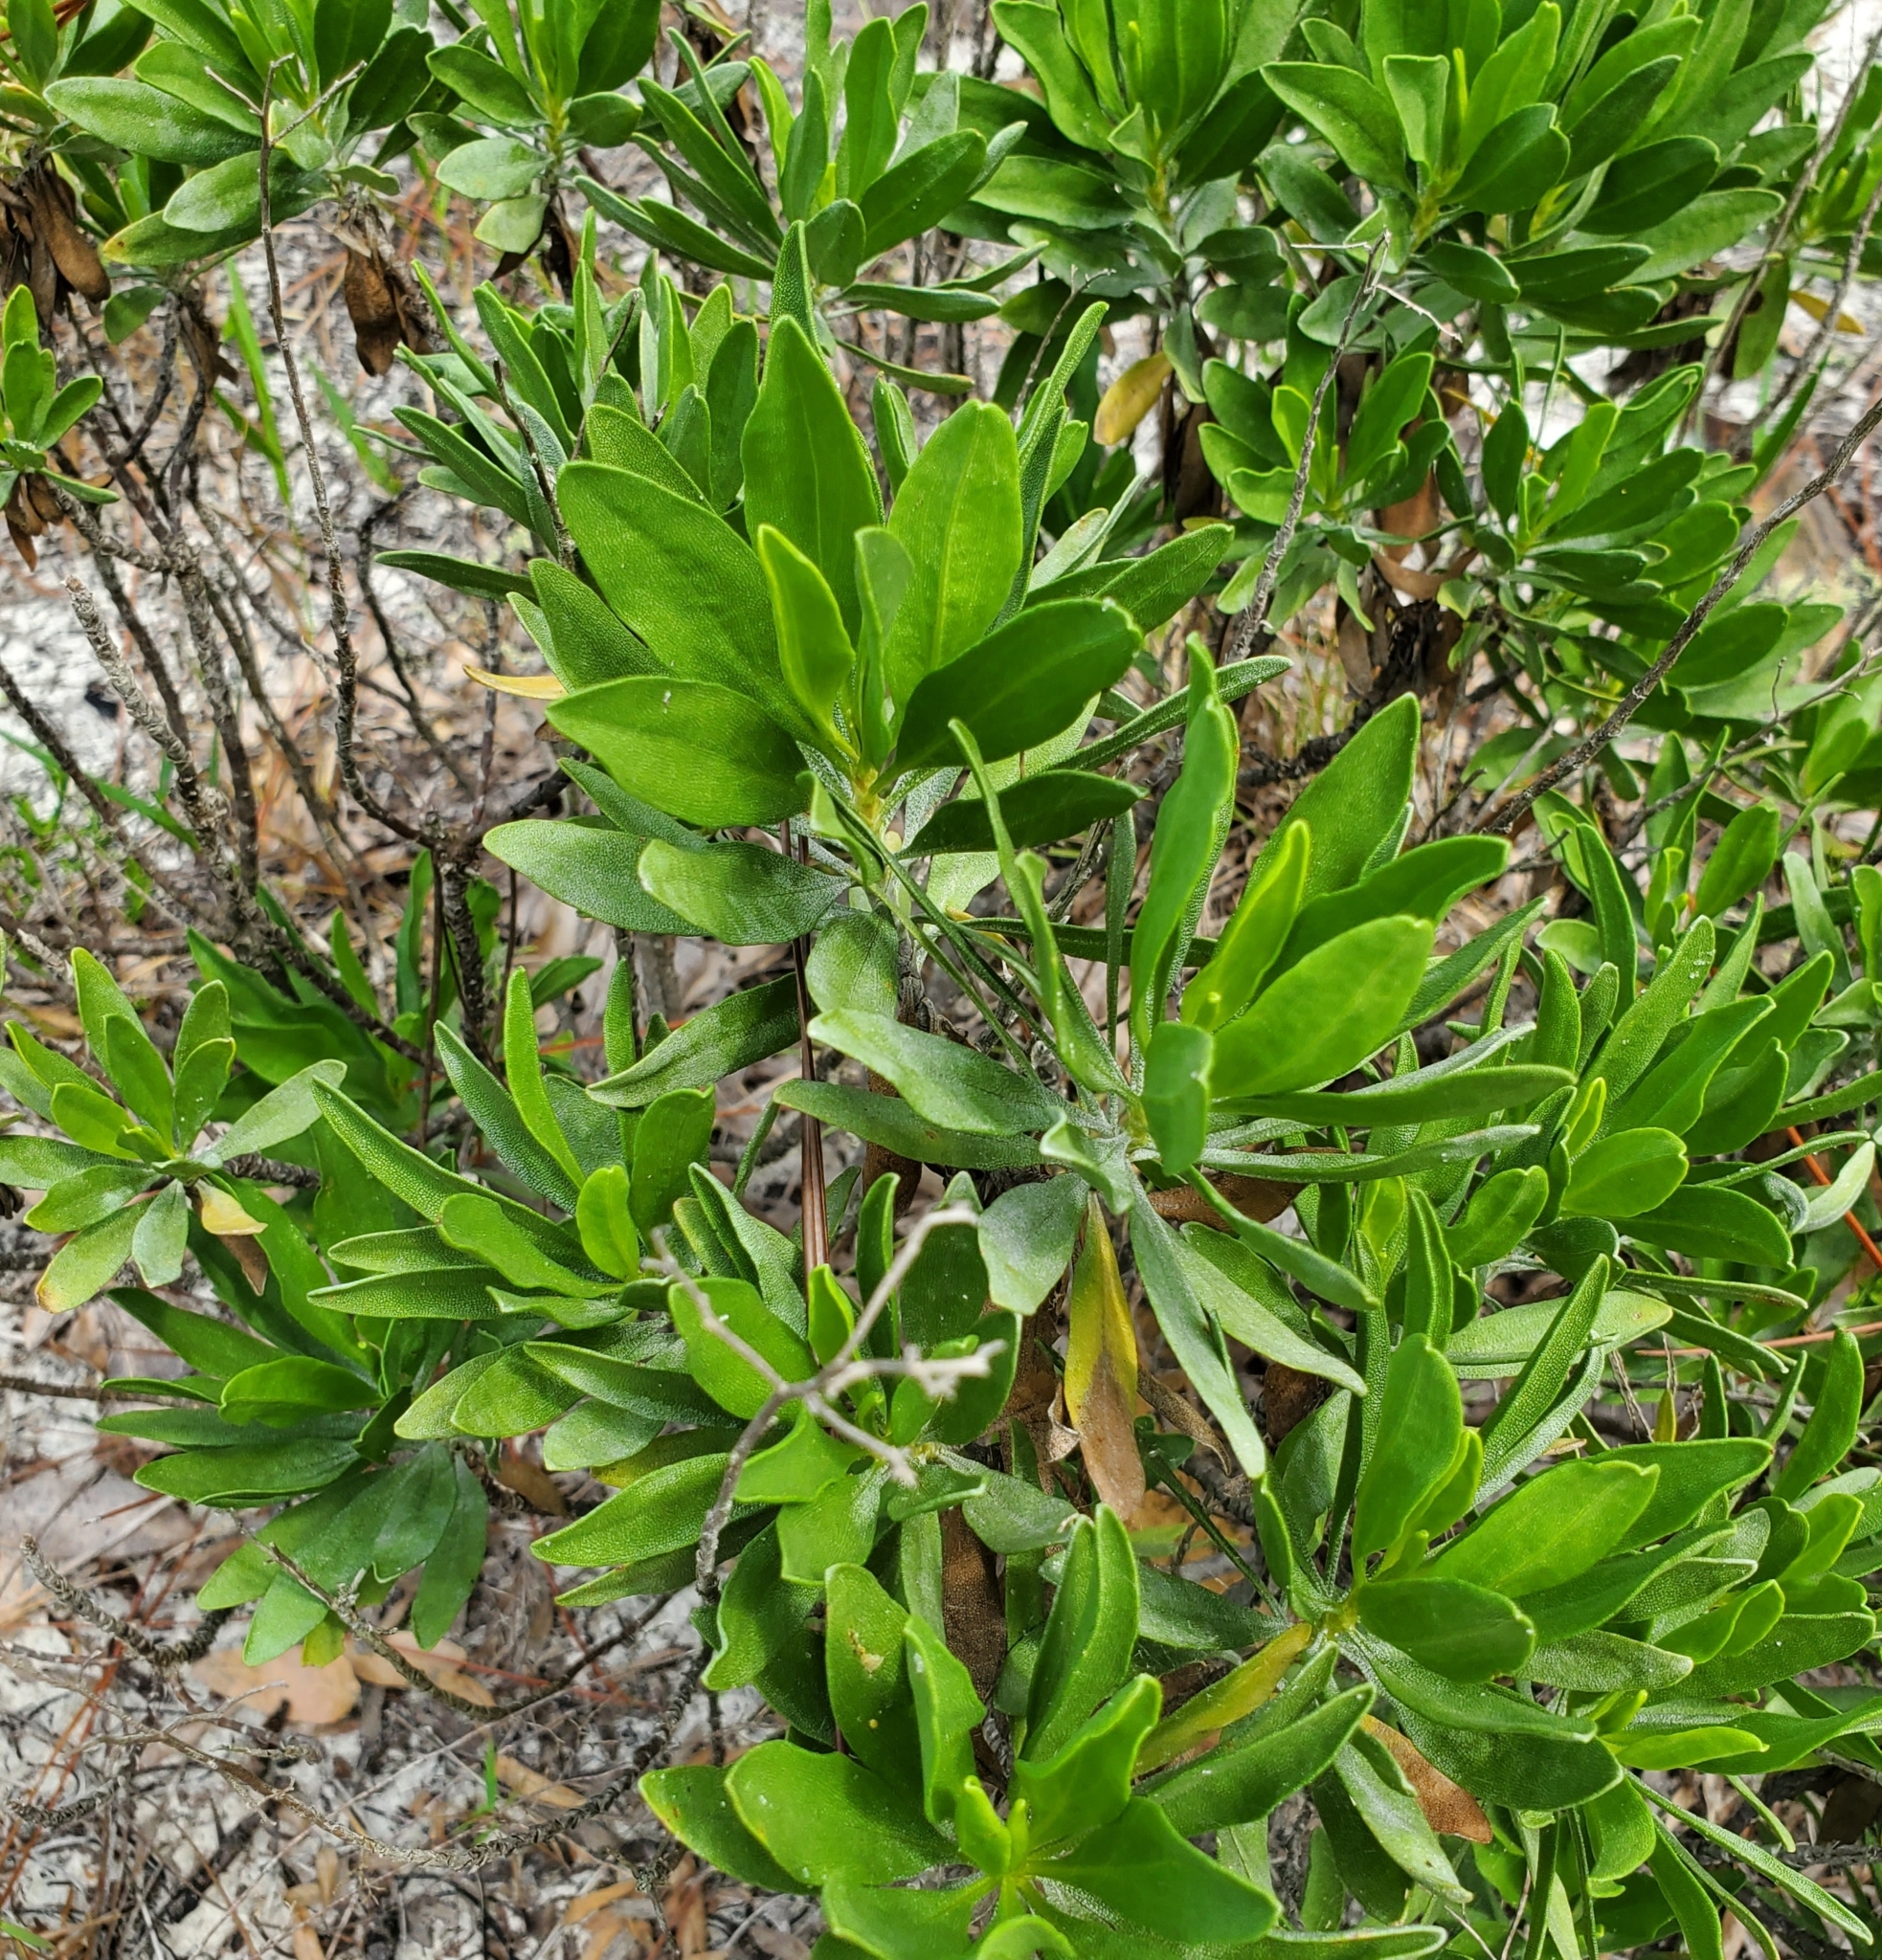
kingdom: Plantae
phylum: Tracheophyta
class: Magnoliopsida
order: Asterales
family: Asteraceae
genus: Chrysoma
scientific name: Chrysoma pauciflosculosa
